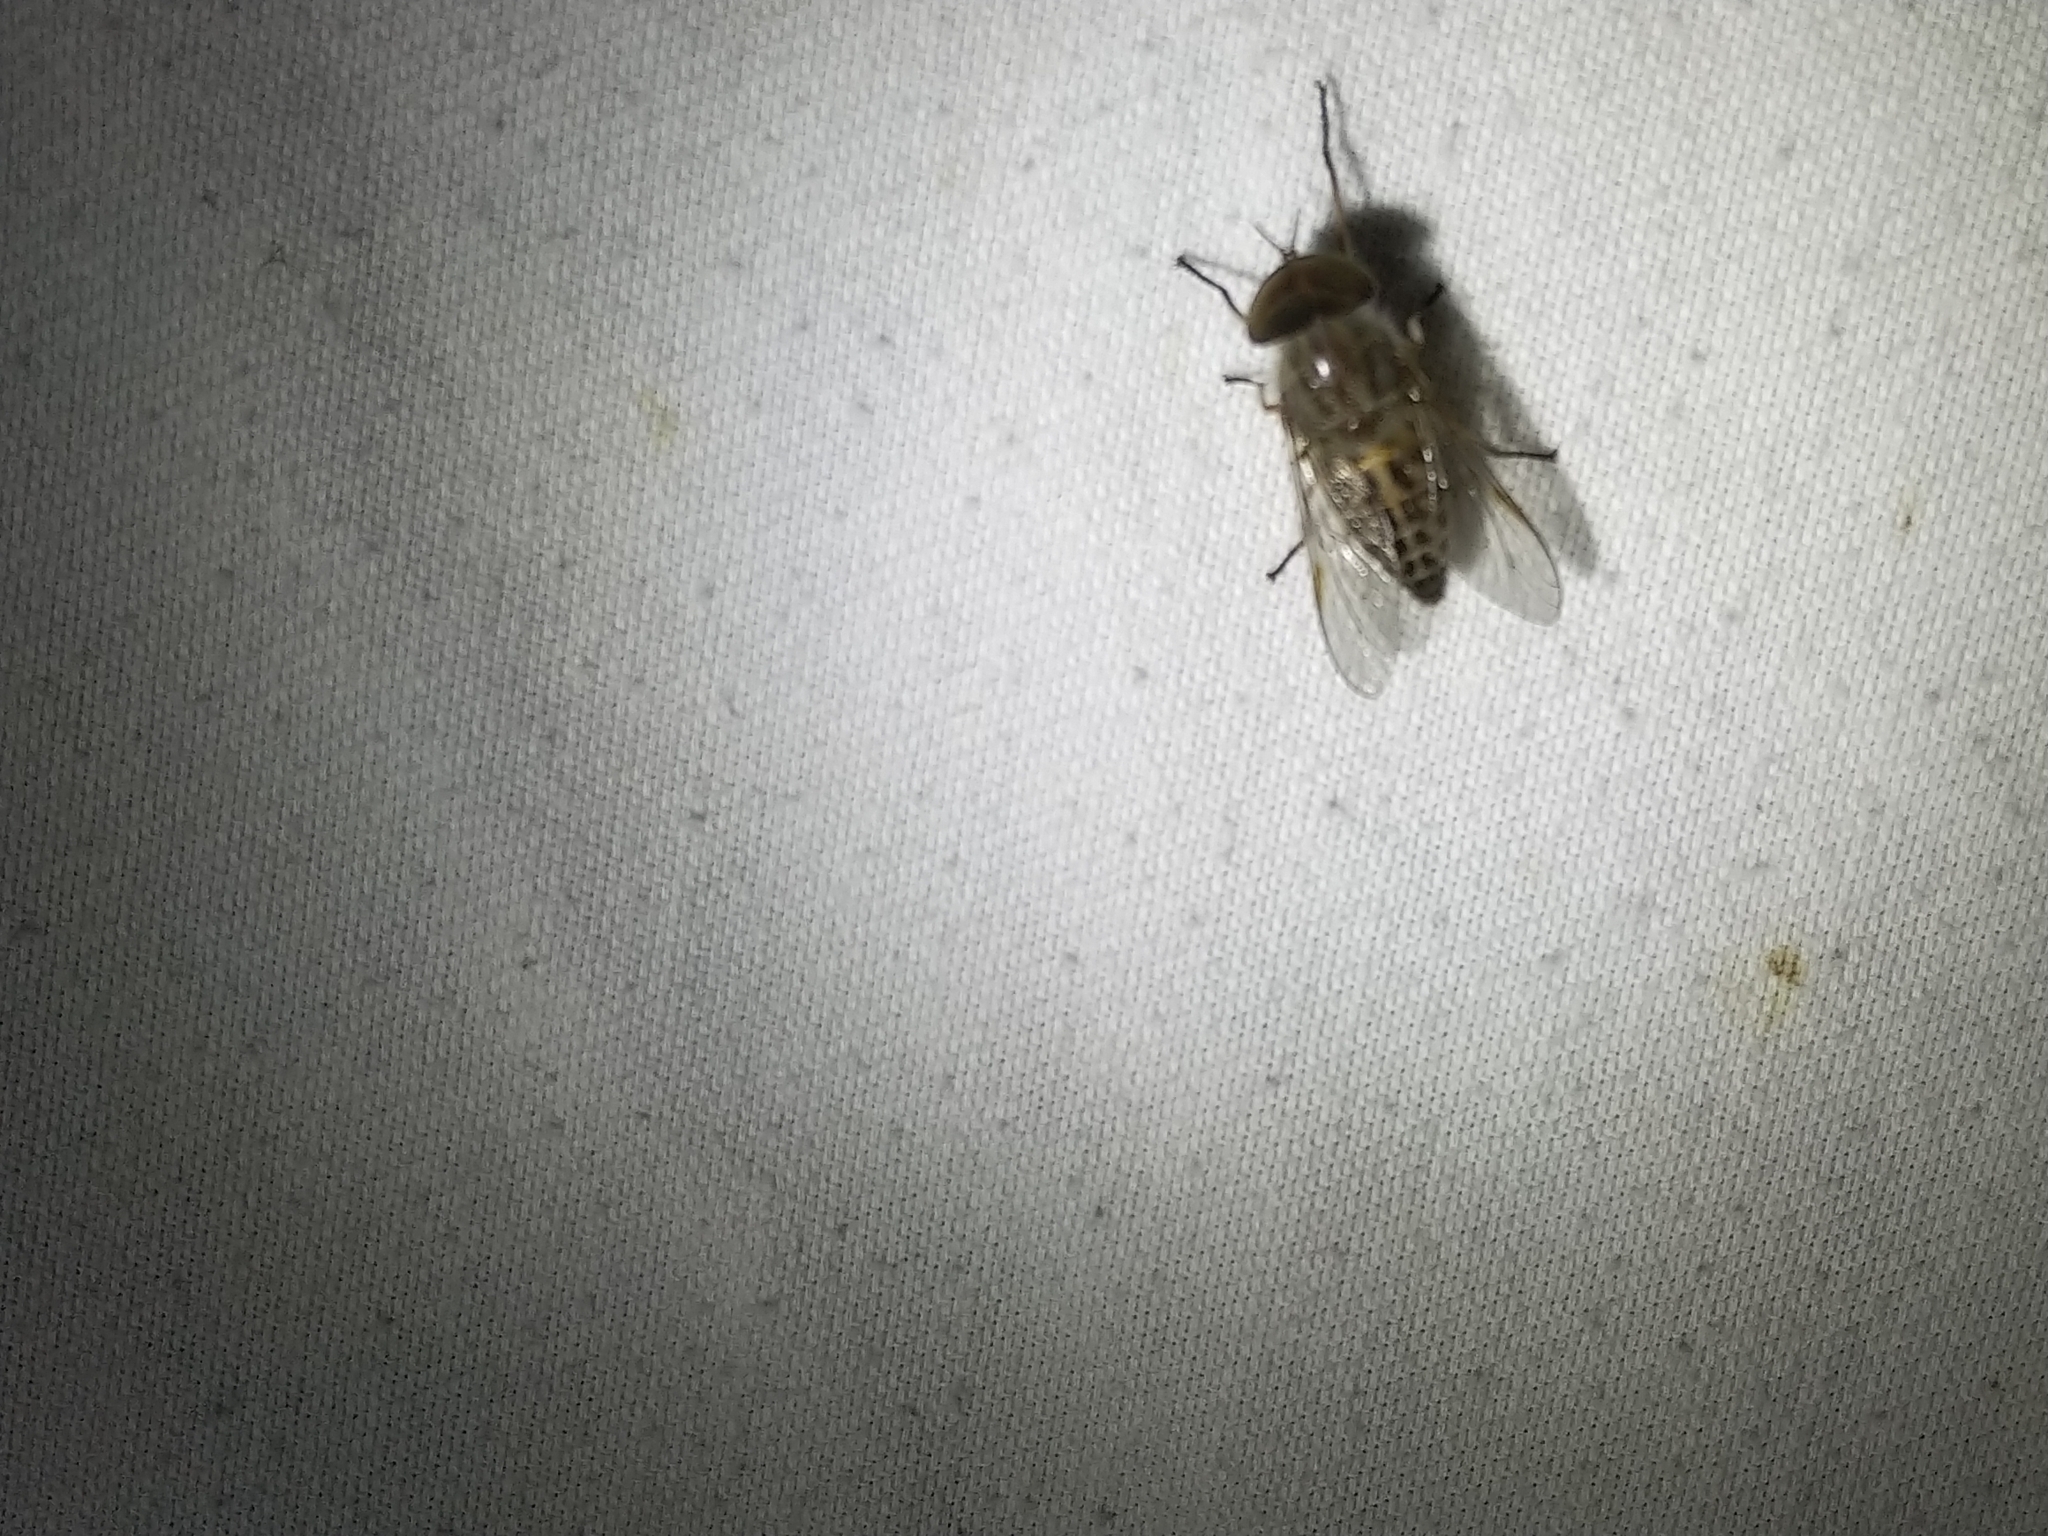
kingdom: Animalia
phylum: Arthropoda
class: Insecta
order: Diptera
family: Tabanidae
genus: Tabanus
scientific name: Tabanus lineola
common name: Striped horse fly
